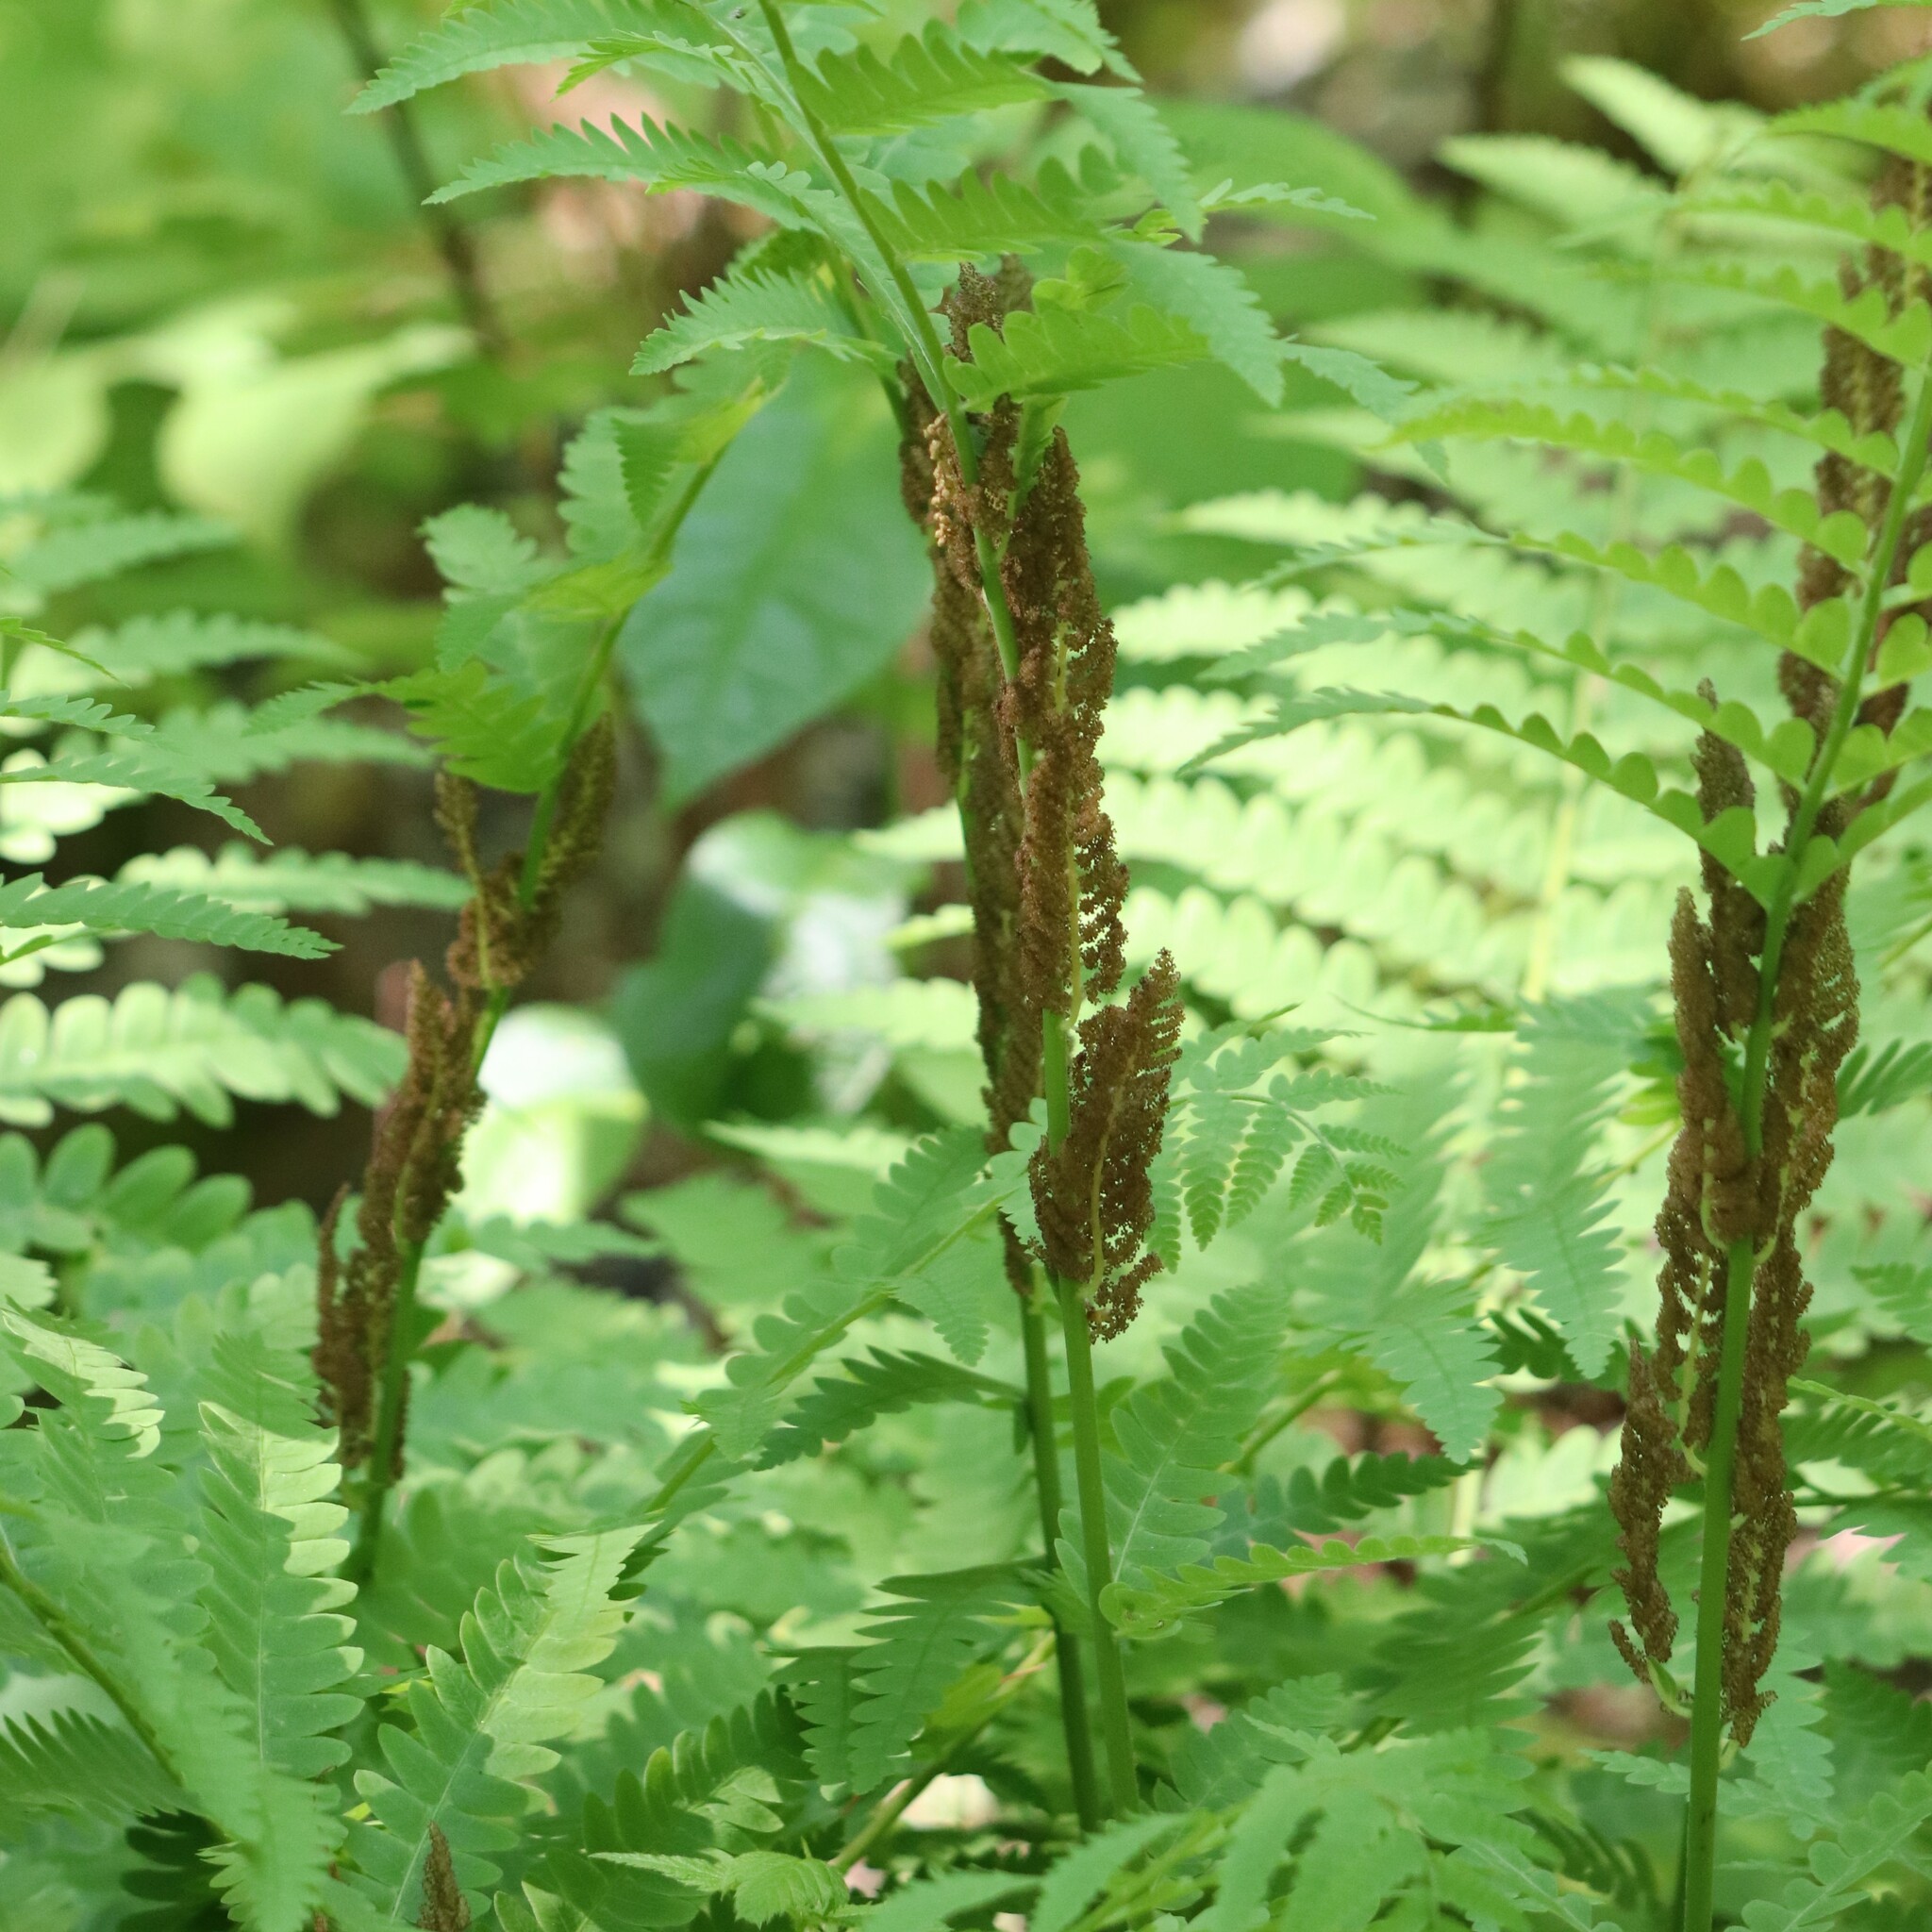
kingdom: Plantae
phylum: Tracheophyta
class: Polypodiopsida
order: Osmundales
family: Osmundaceae
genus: Claytosmunda
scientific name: Claytosmunda claytoniana
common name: Clayton's fern
